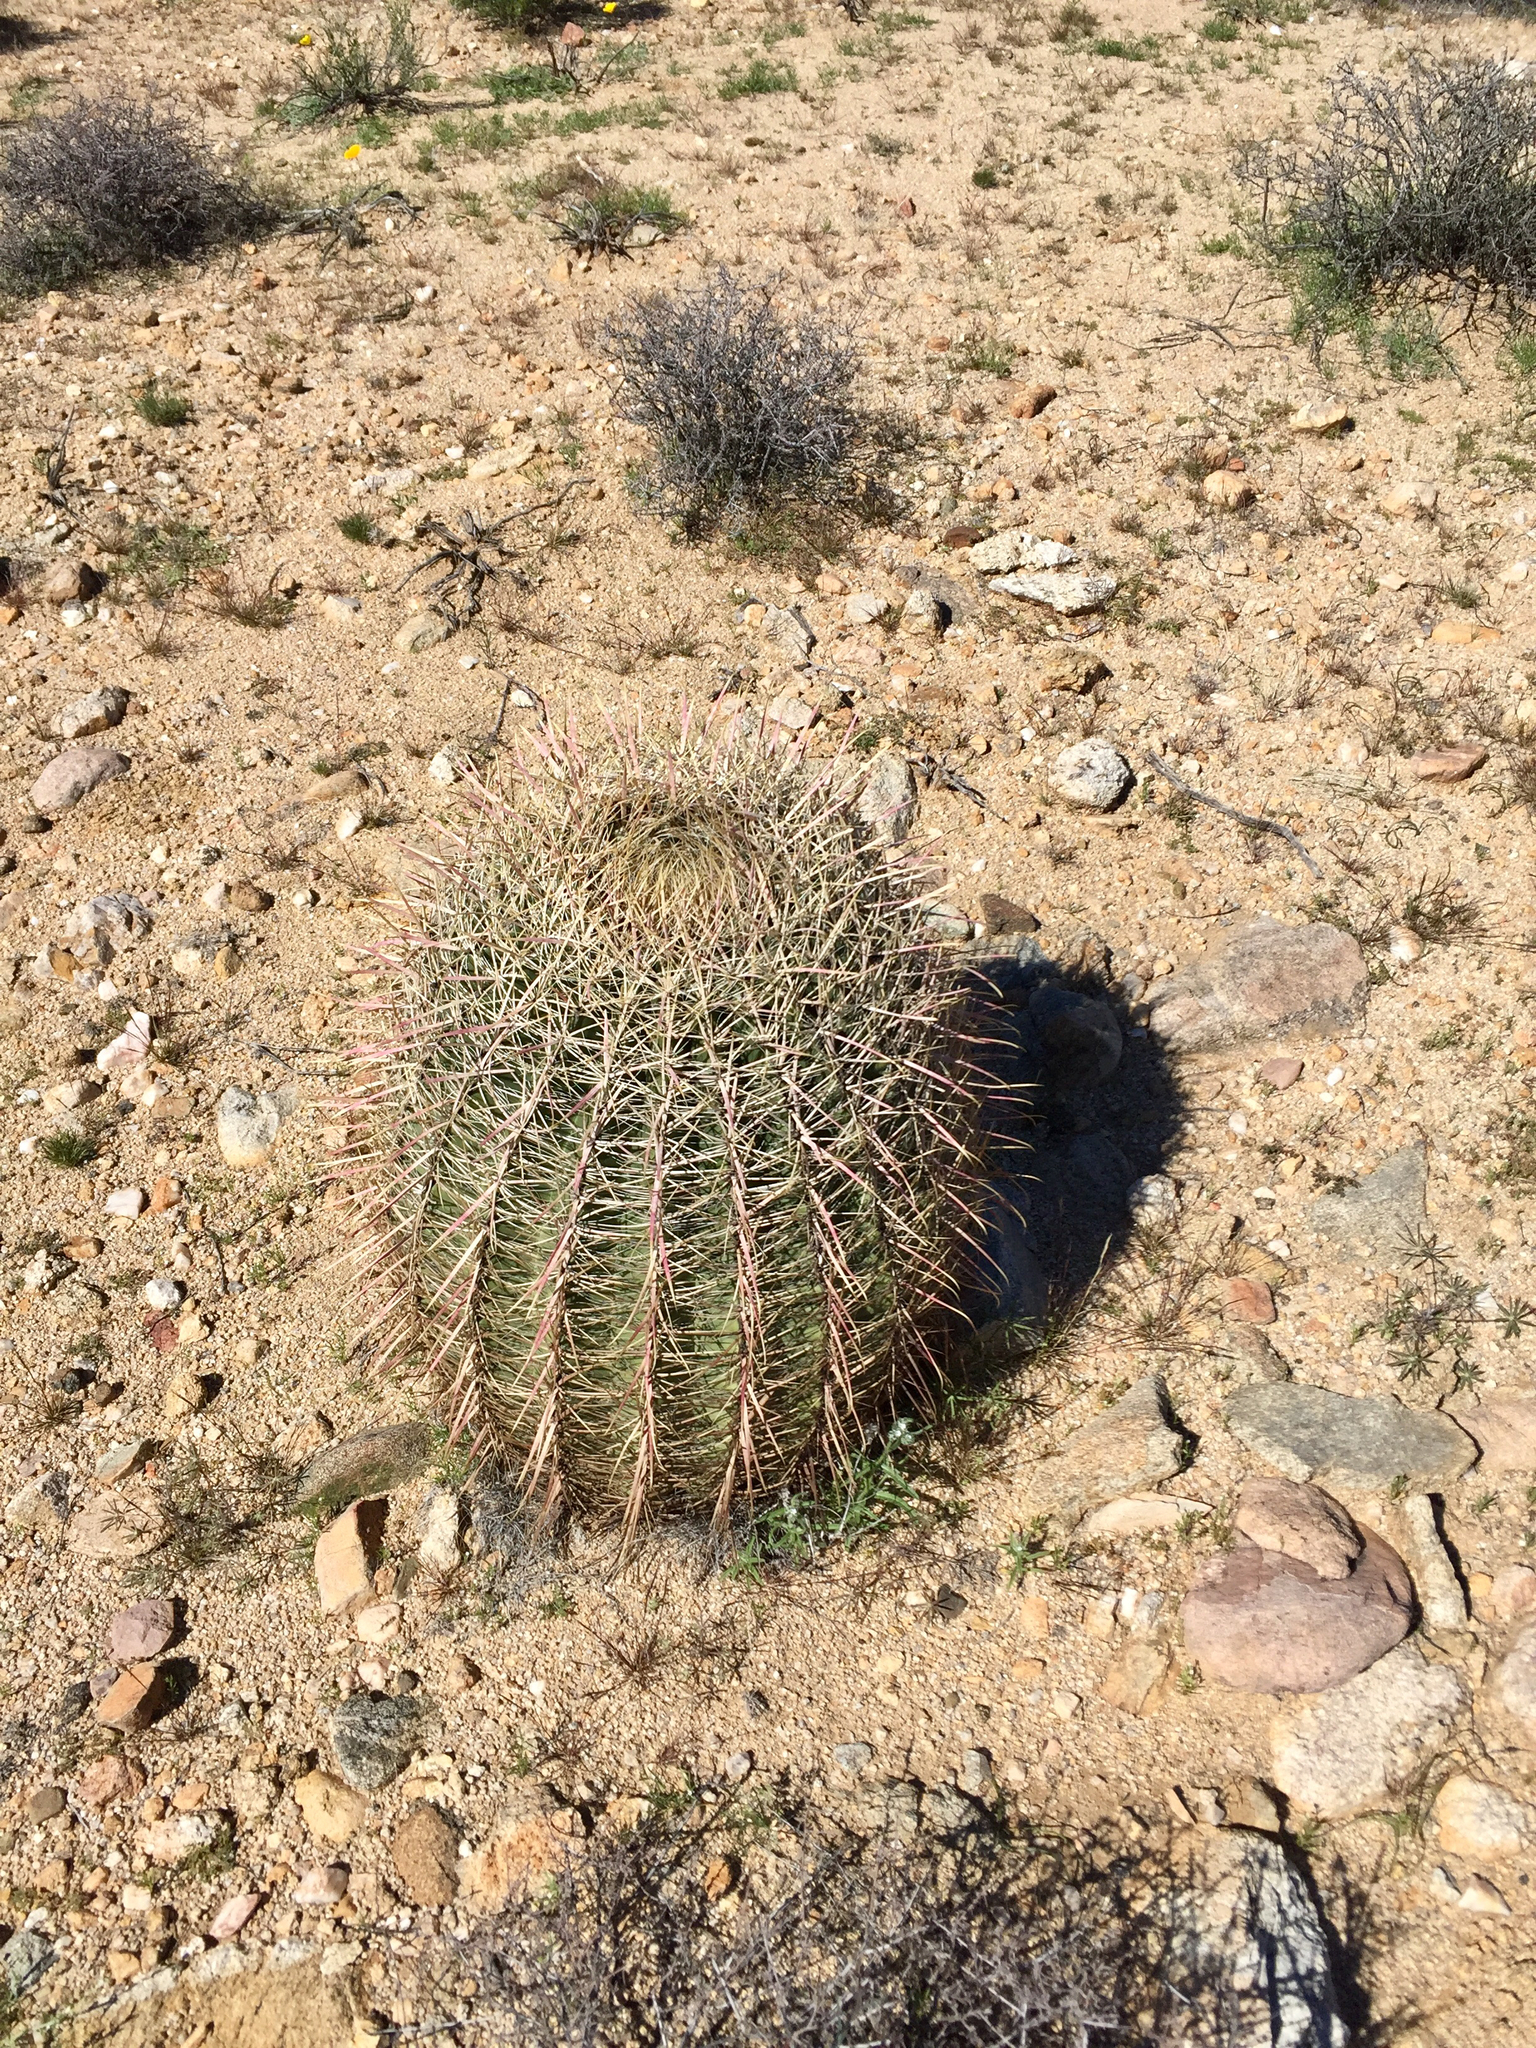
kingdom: Plantae
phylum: Tracheophyta
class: Magnoliopsida
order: Caryophyllales
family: Cactaceae
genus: Ferocactus
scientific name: Ferocactus cylindraceus
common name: California barrel cactus
